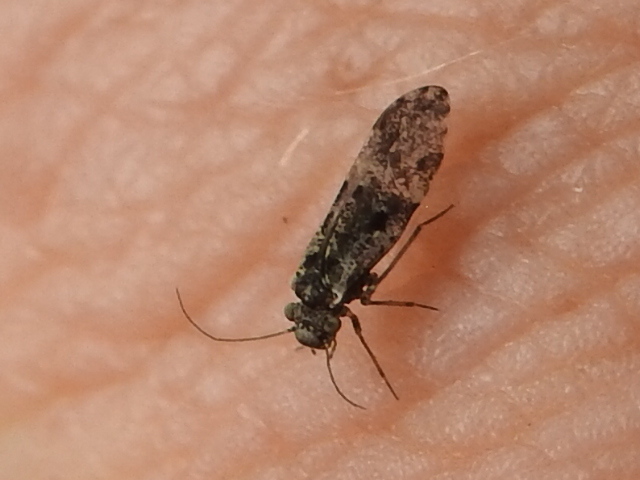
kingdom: Animalia
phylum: Arthropoda
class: Insecta
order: Psocodea
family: Psocidae
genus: Loensia
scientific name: Loensia moesta
